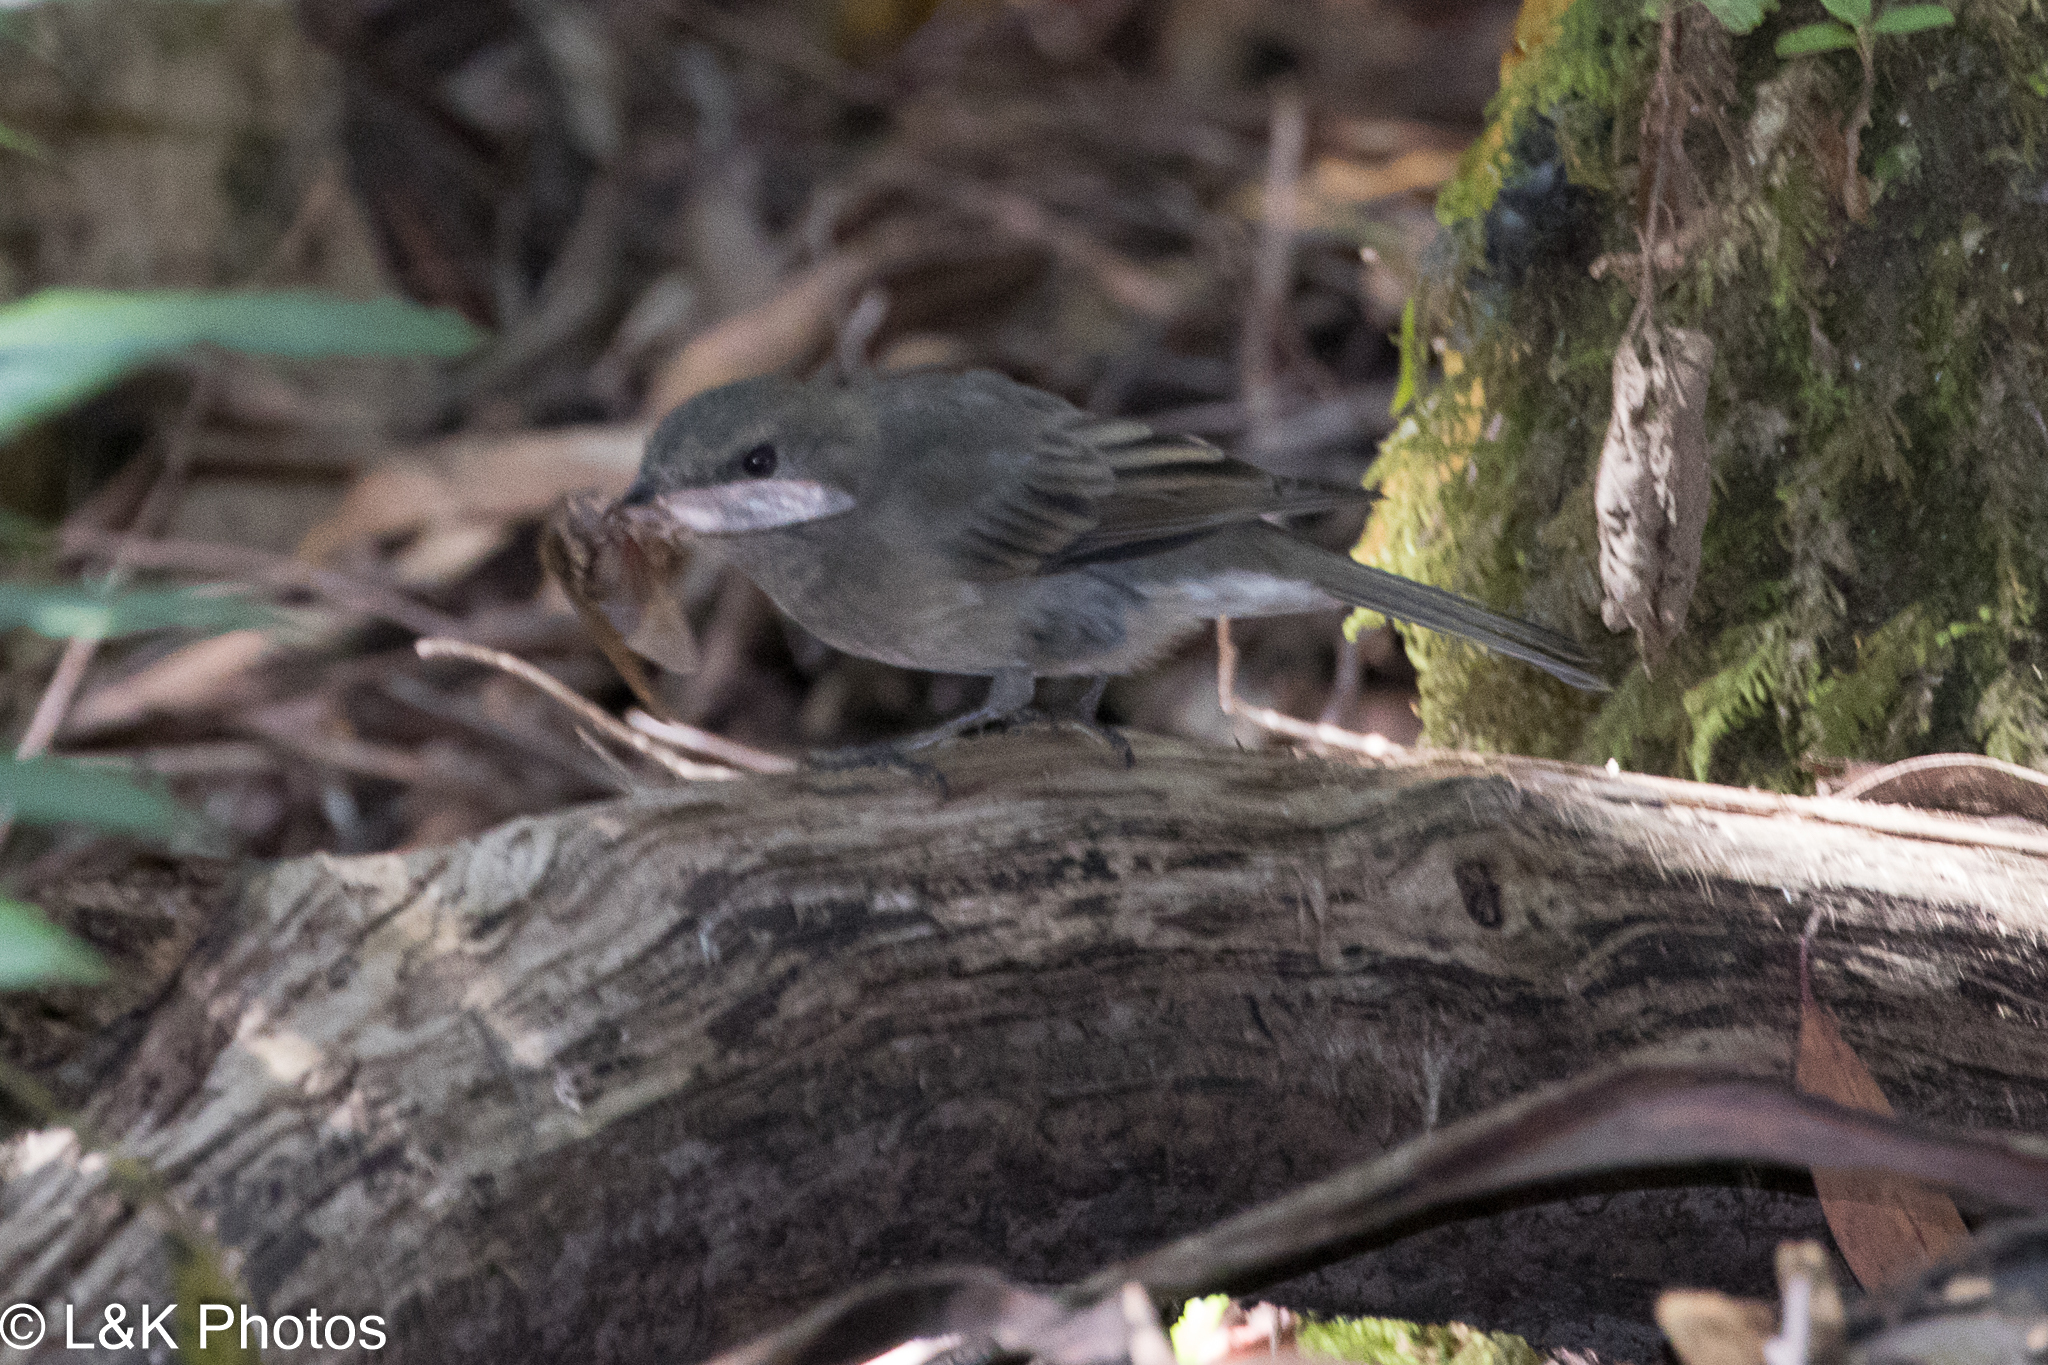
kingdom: Animalia
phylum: Chordata
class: Aves
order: Passeriformes
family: Pachycephalidae
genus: Pachycephala
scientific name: Pachycephala pectoralis
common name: Australian golden whistler
